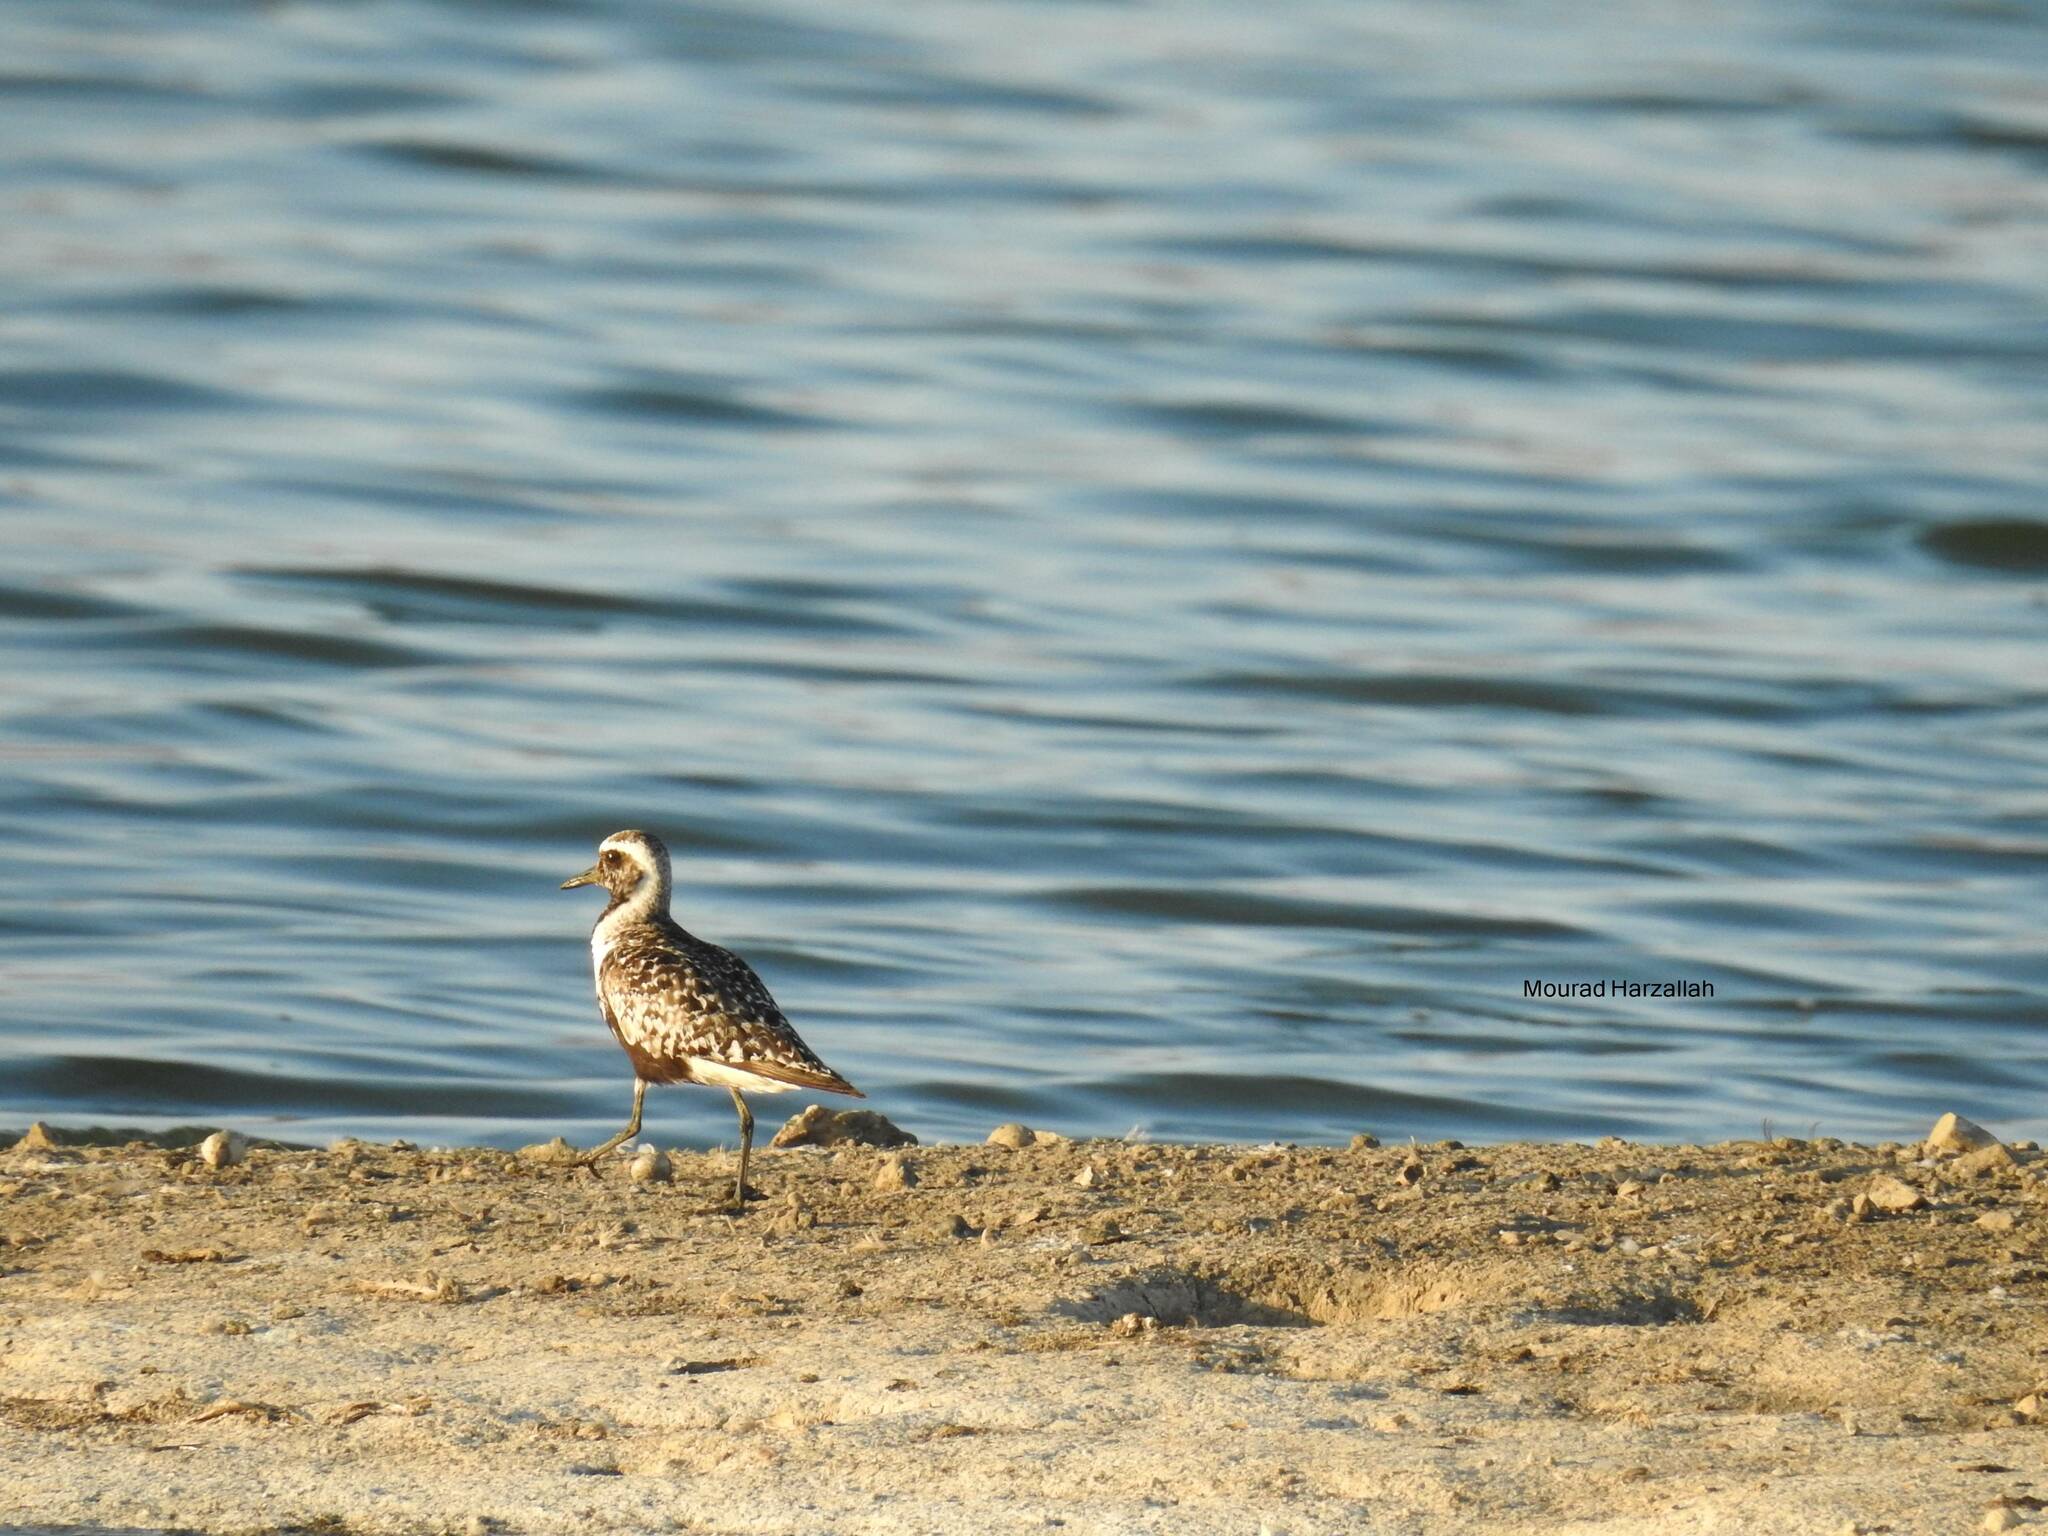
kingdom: Animalia
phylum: Chordata
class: Aves
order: Charadriiformes
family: Charadriidae
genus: Pluvialis
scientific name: Pluvialis squatarola
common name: Grey plover
